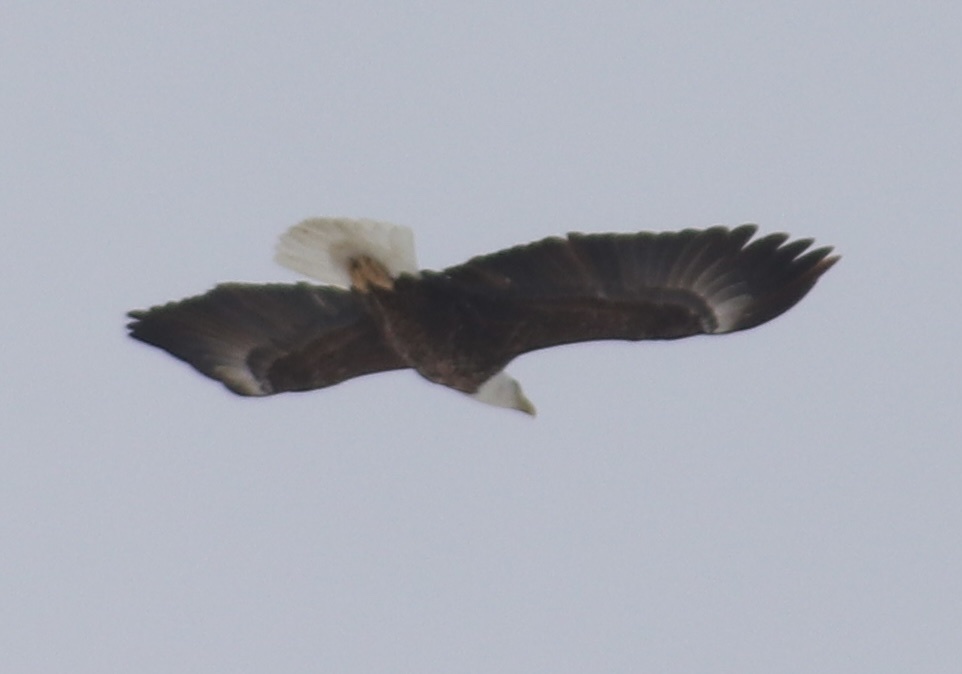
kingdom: Animalia
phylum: Chordata
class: Aves
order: Accipitriformes
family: Accipitridae
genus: Haliaeetus
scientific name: Haliaeetus leucocephalus
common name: Bald eagle
